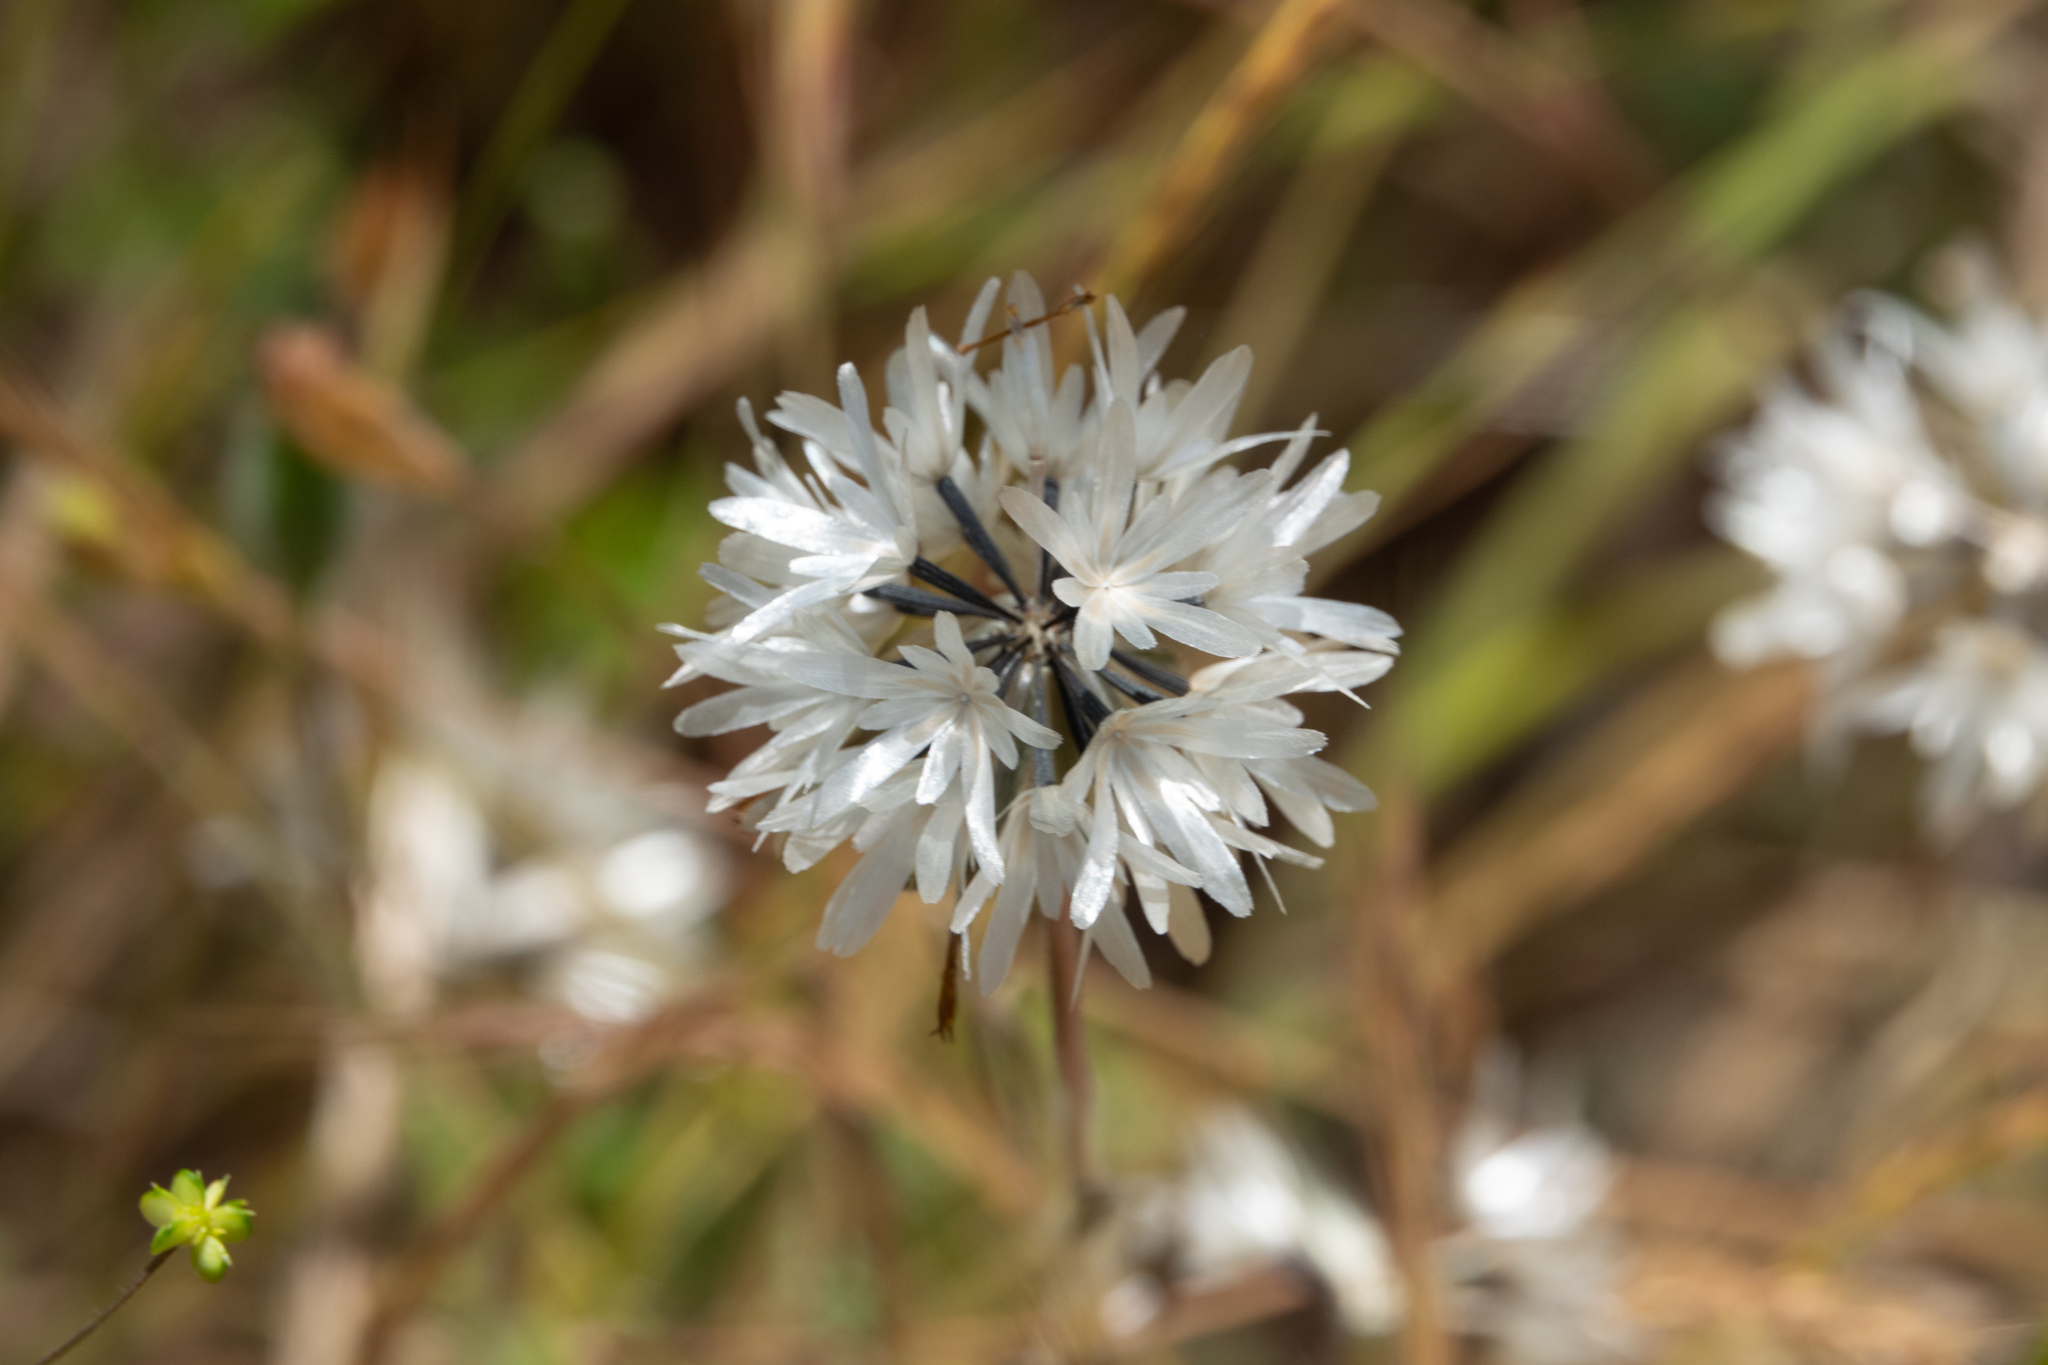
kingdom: Plantae
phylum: Tracheophyta
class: Magnoliopsida
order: Asterales
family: Asteraceae
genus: Achyrachaena
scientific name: Achyrachaena mollis
